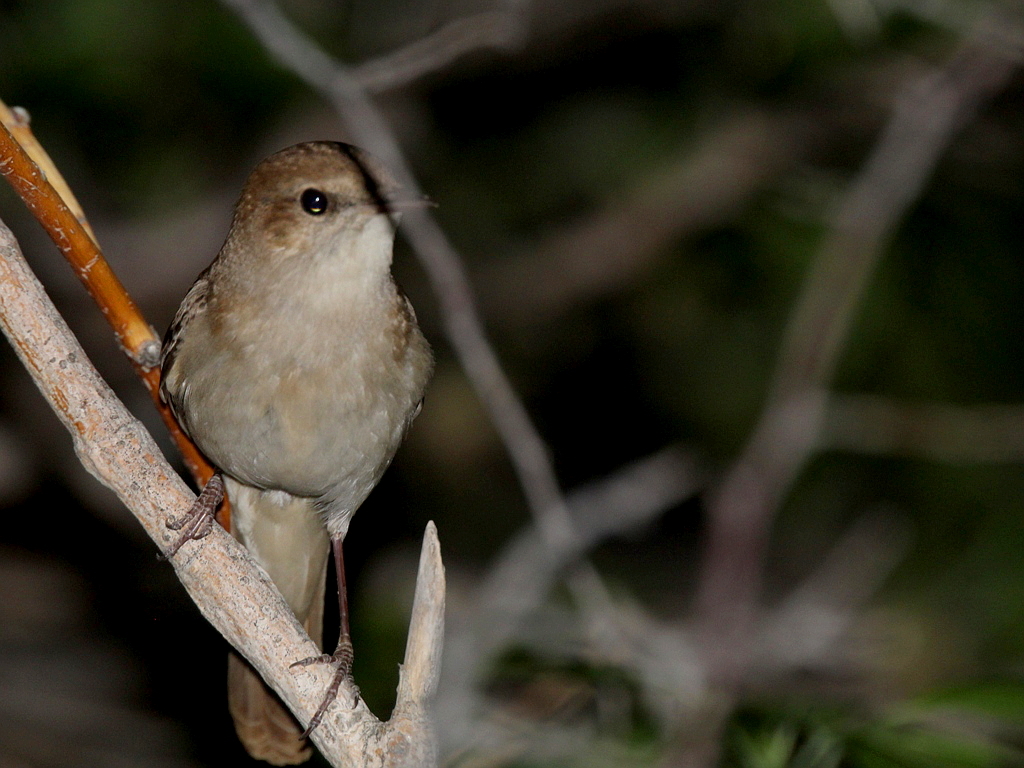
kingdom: Animalia
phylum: Chordata
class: Aves
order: Passeriformes
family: Muscicapidae
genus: Luscinia
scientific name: Luscinia megarhynchos
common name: Common nightingale
